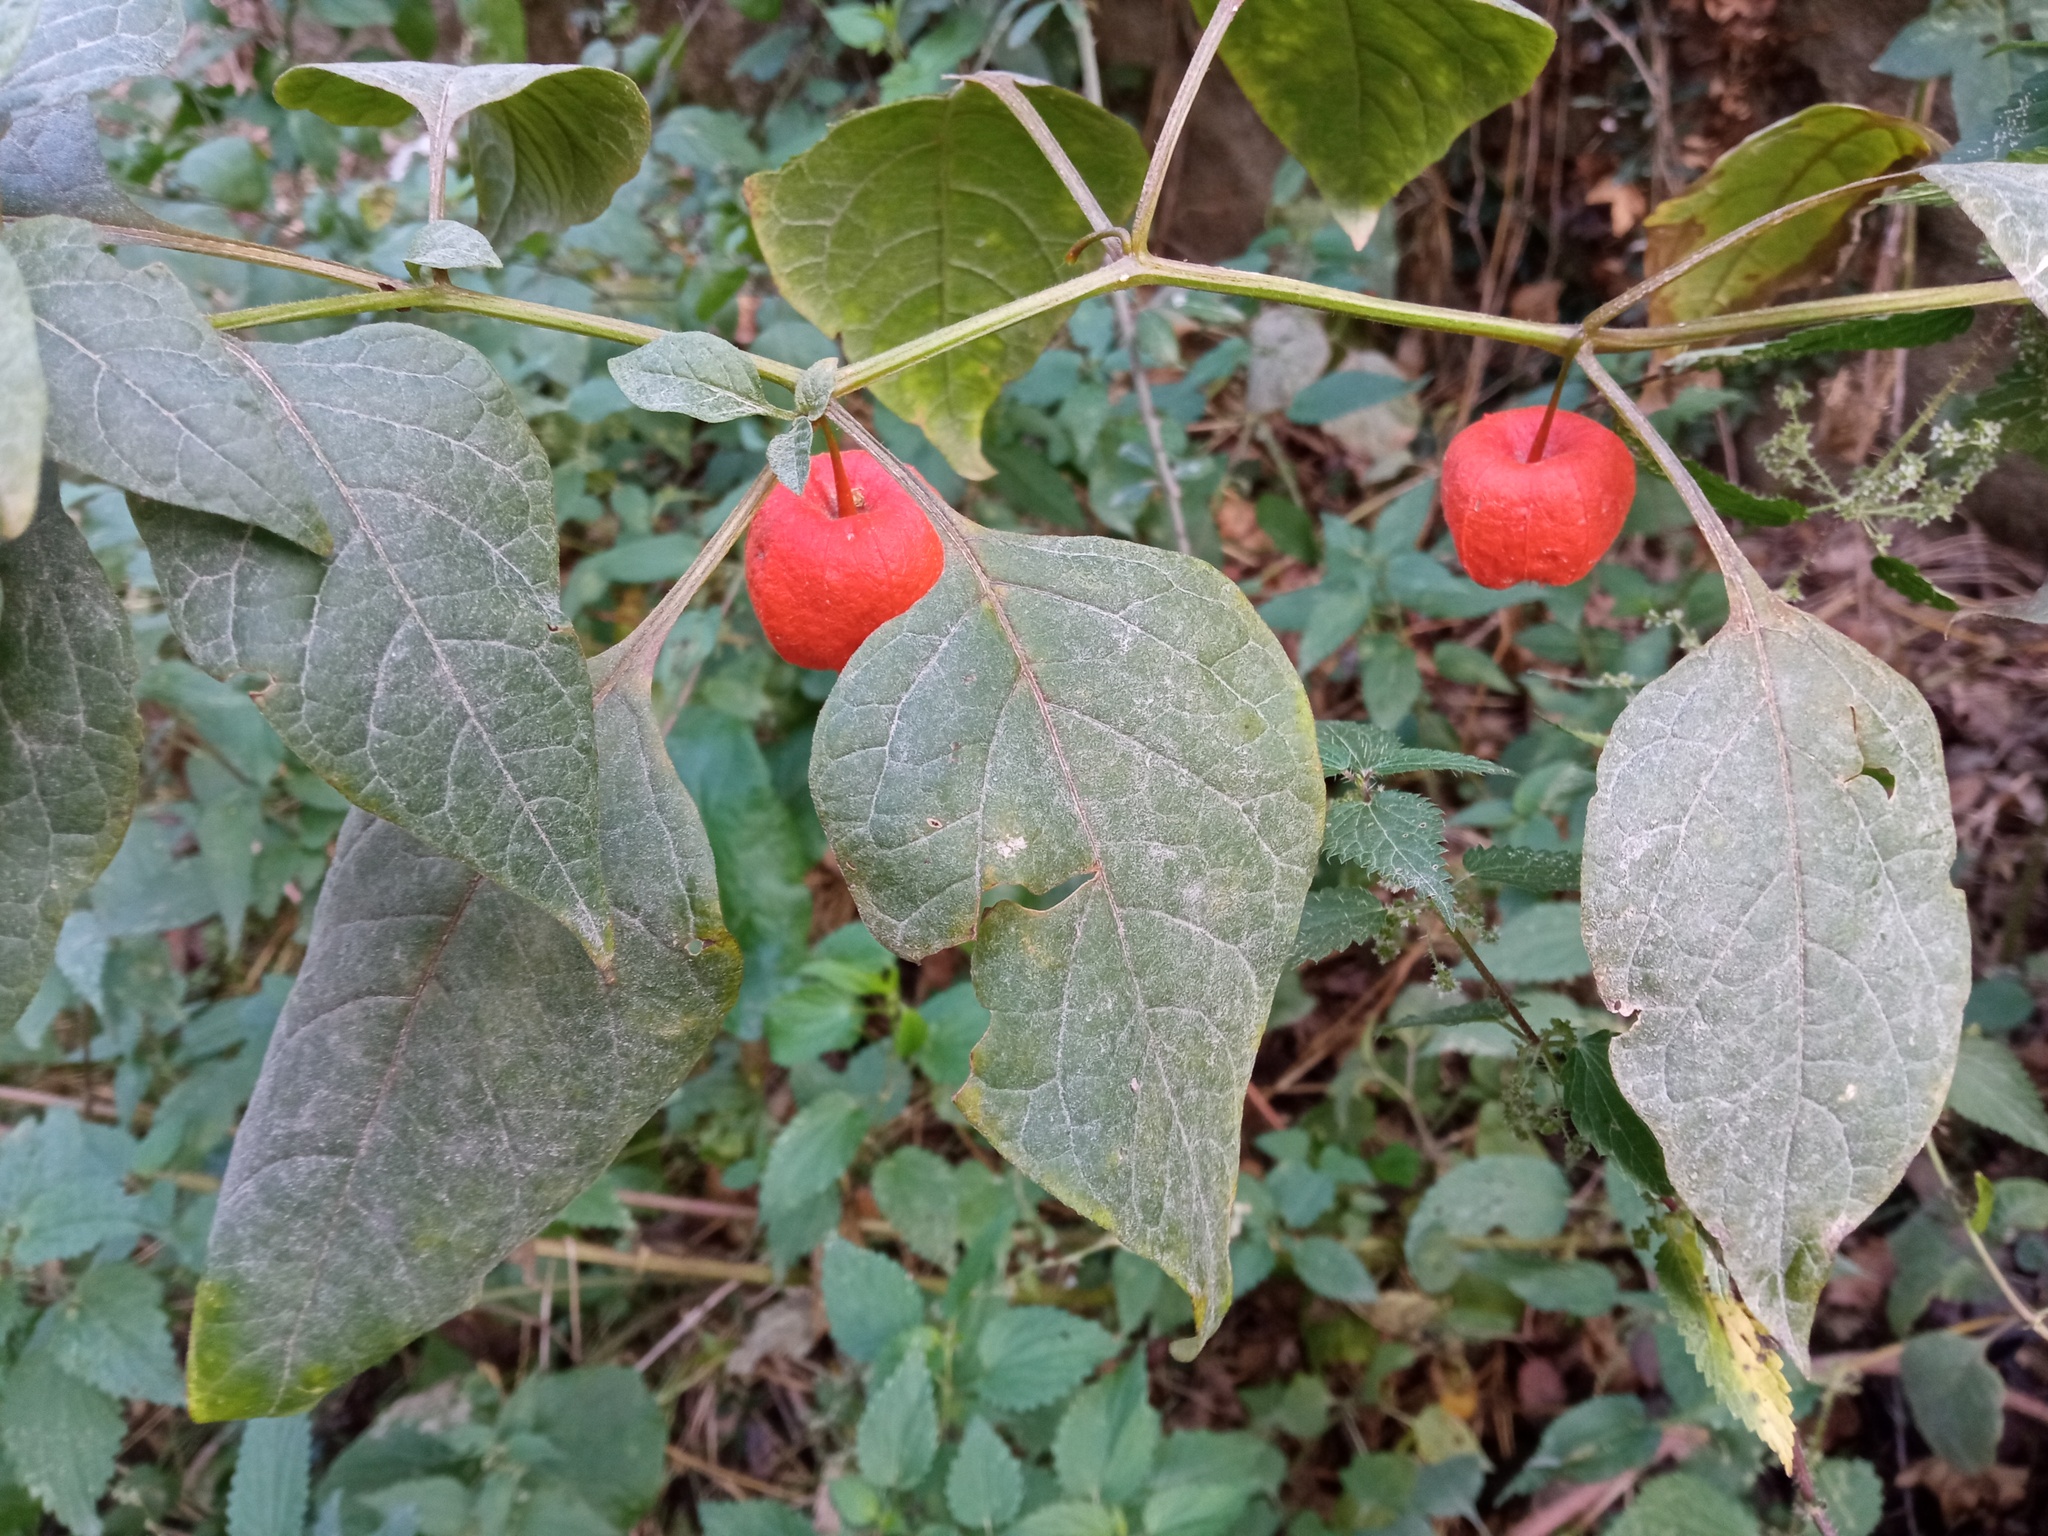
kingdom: Plantae
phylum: Tracheophyta
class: Magnoliopsida
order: Solanales
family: Solanaceae
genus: Alkekengi
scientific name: Alkekengi officinarum
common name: Japanese-lantern
